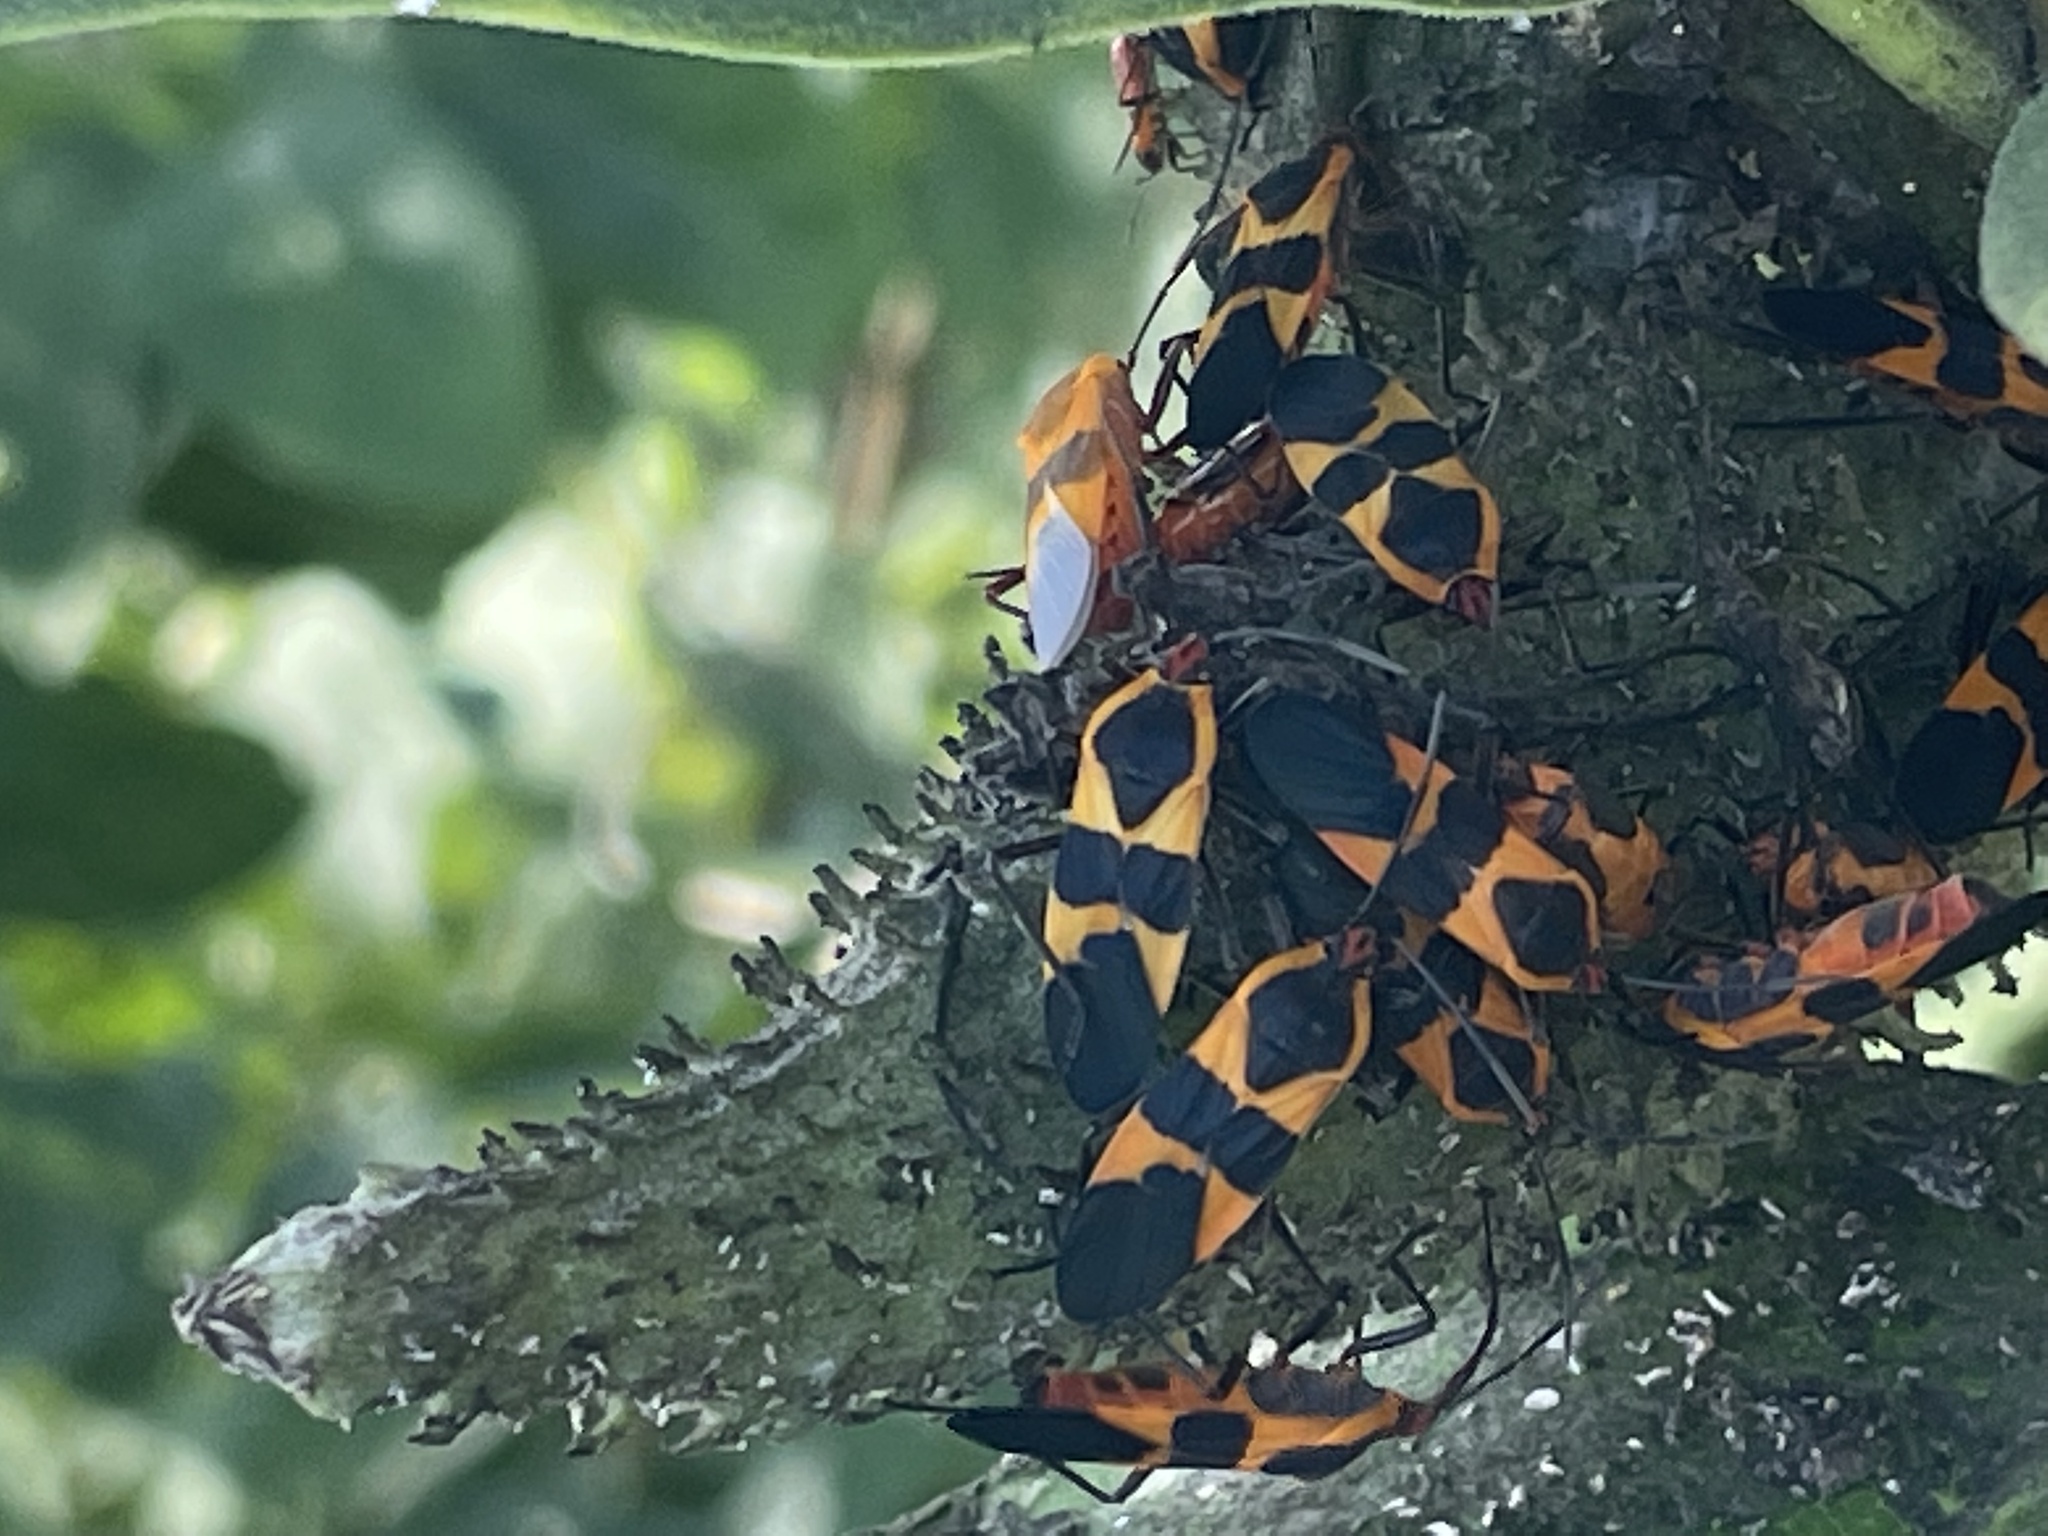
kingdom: Animalia
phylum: Arthropoda
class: Insecta
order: Hemiptera
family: Lygaeidae
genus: Oncopeltus
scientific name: Oncopeltus fasciatus
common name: Large milkweed bug
